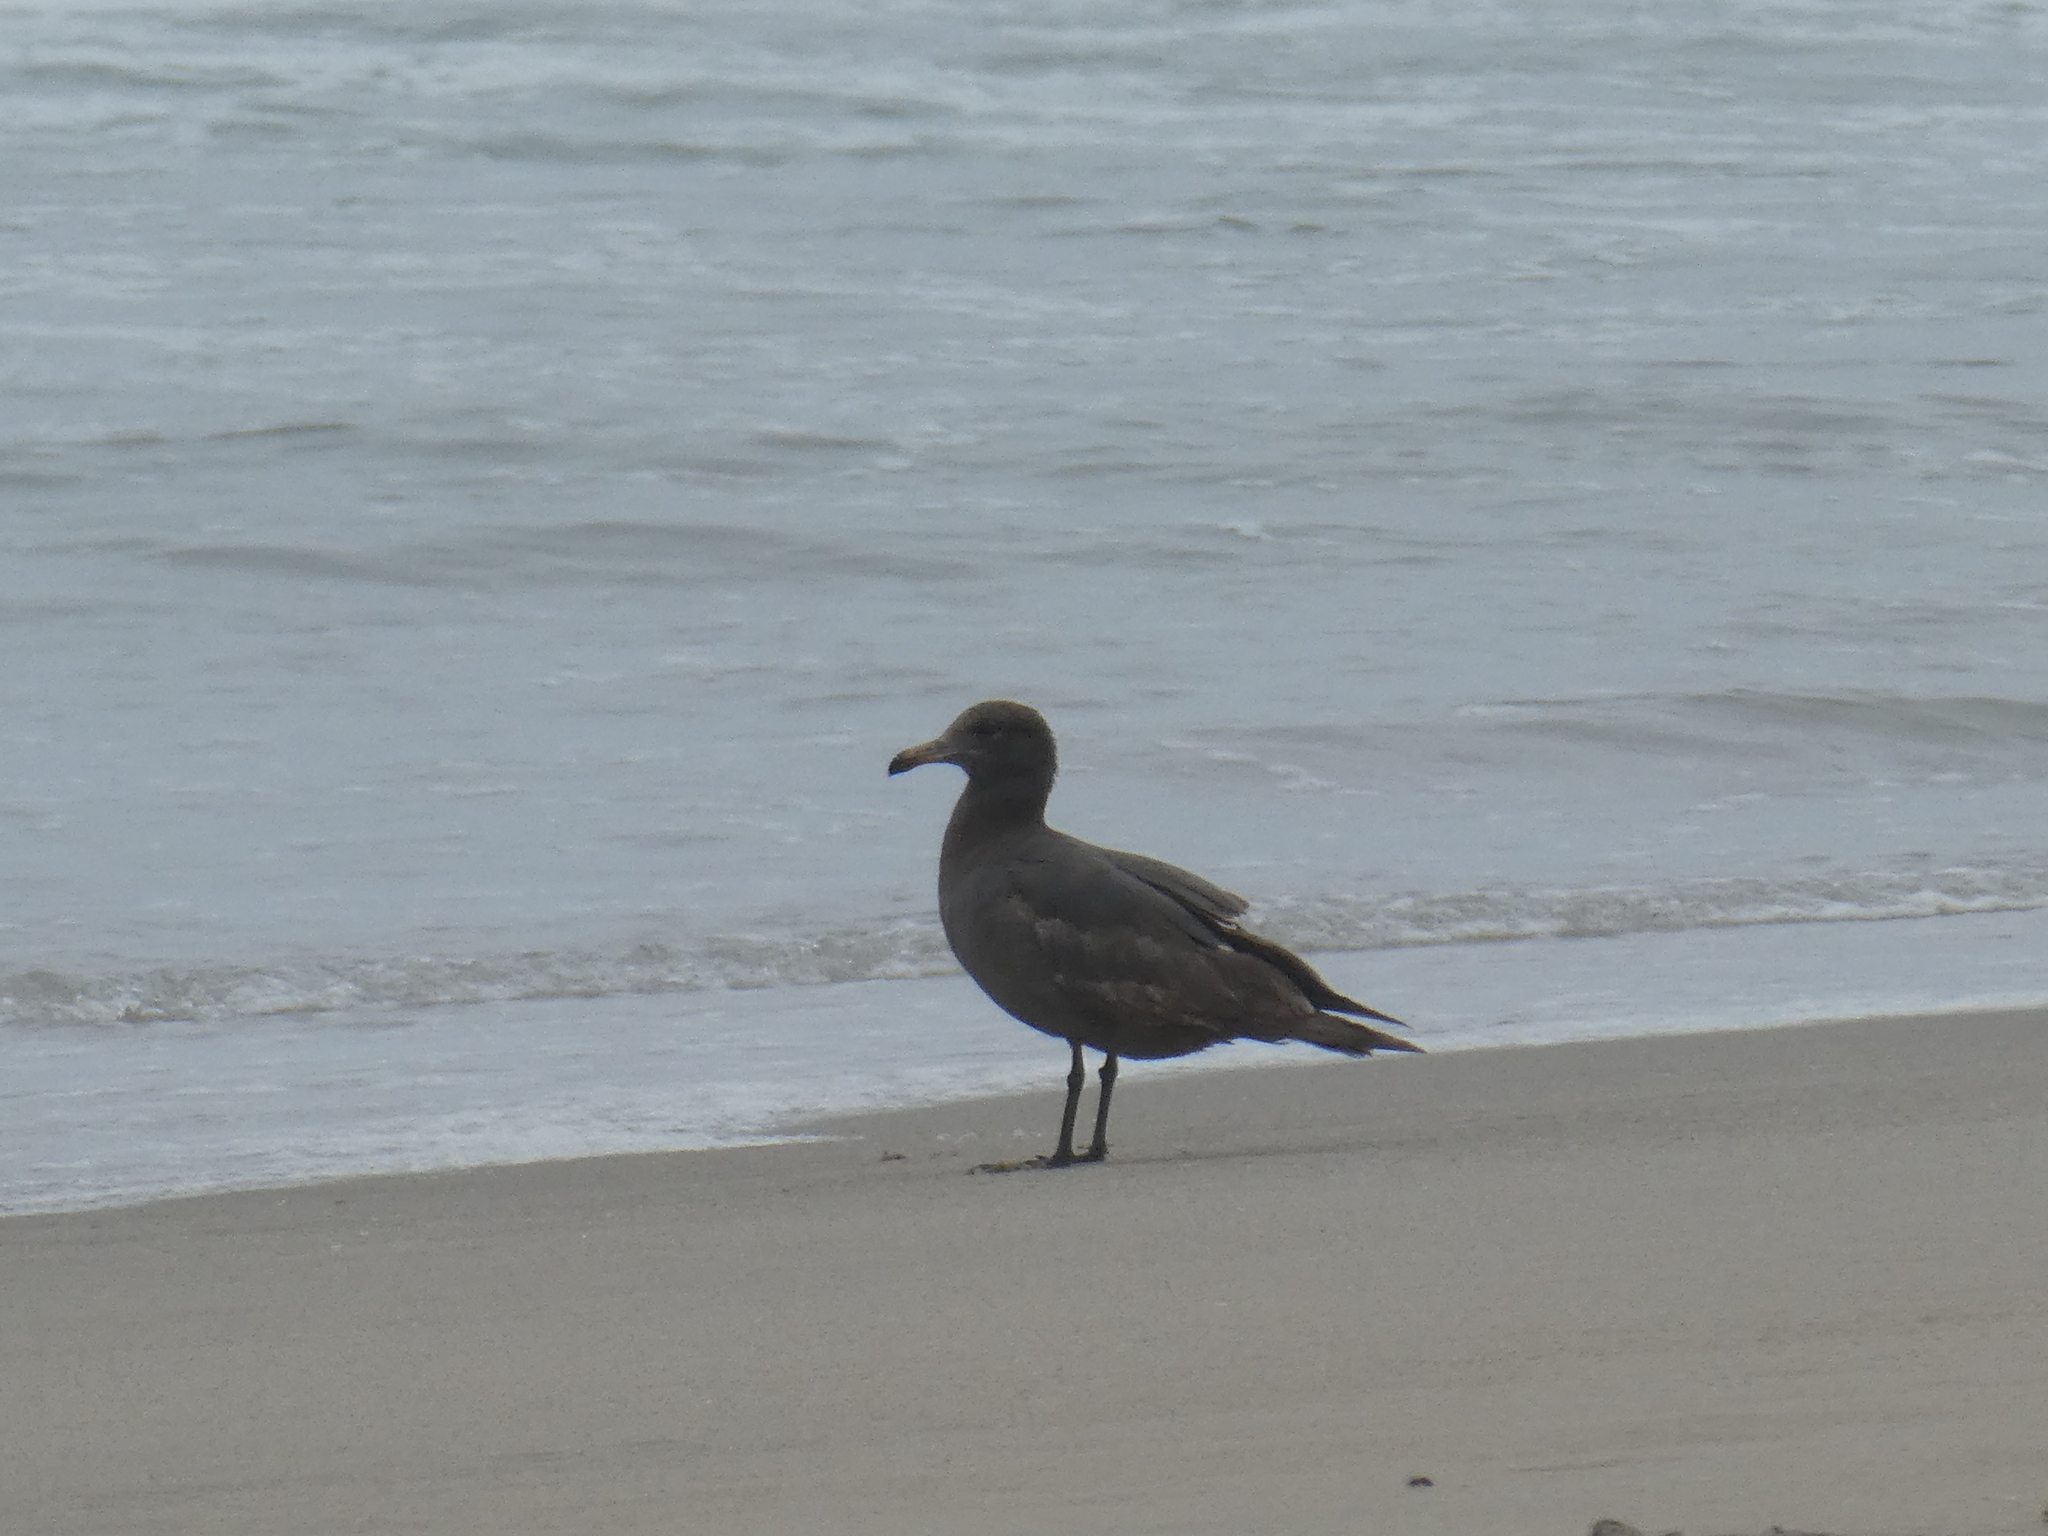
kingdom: Animalia
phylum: Chordata
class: Aves
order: Charadriiformes
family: Laridae
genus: Larus
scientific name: Larus heermanni
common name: Heermann's gull
